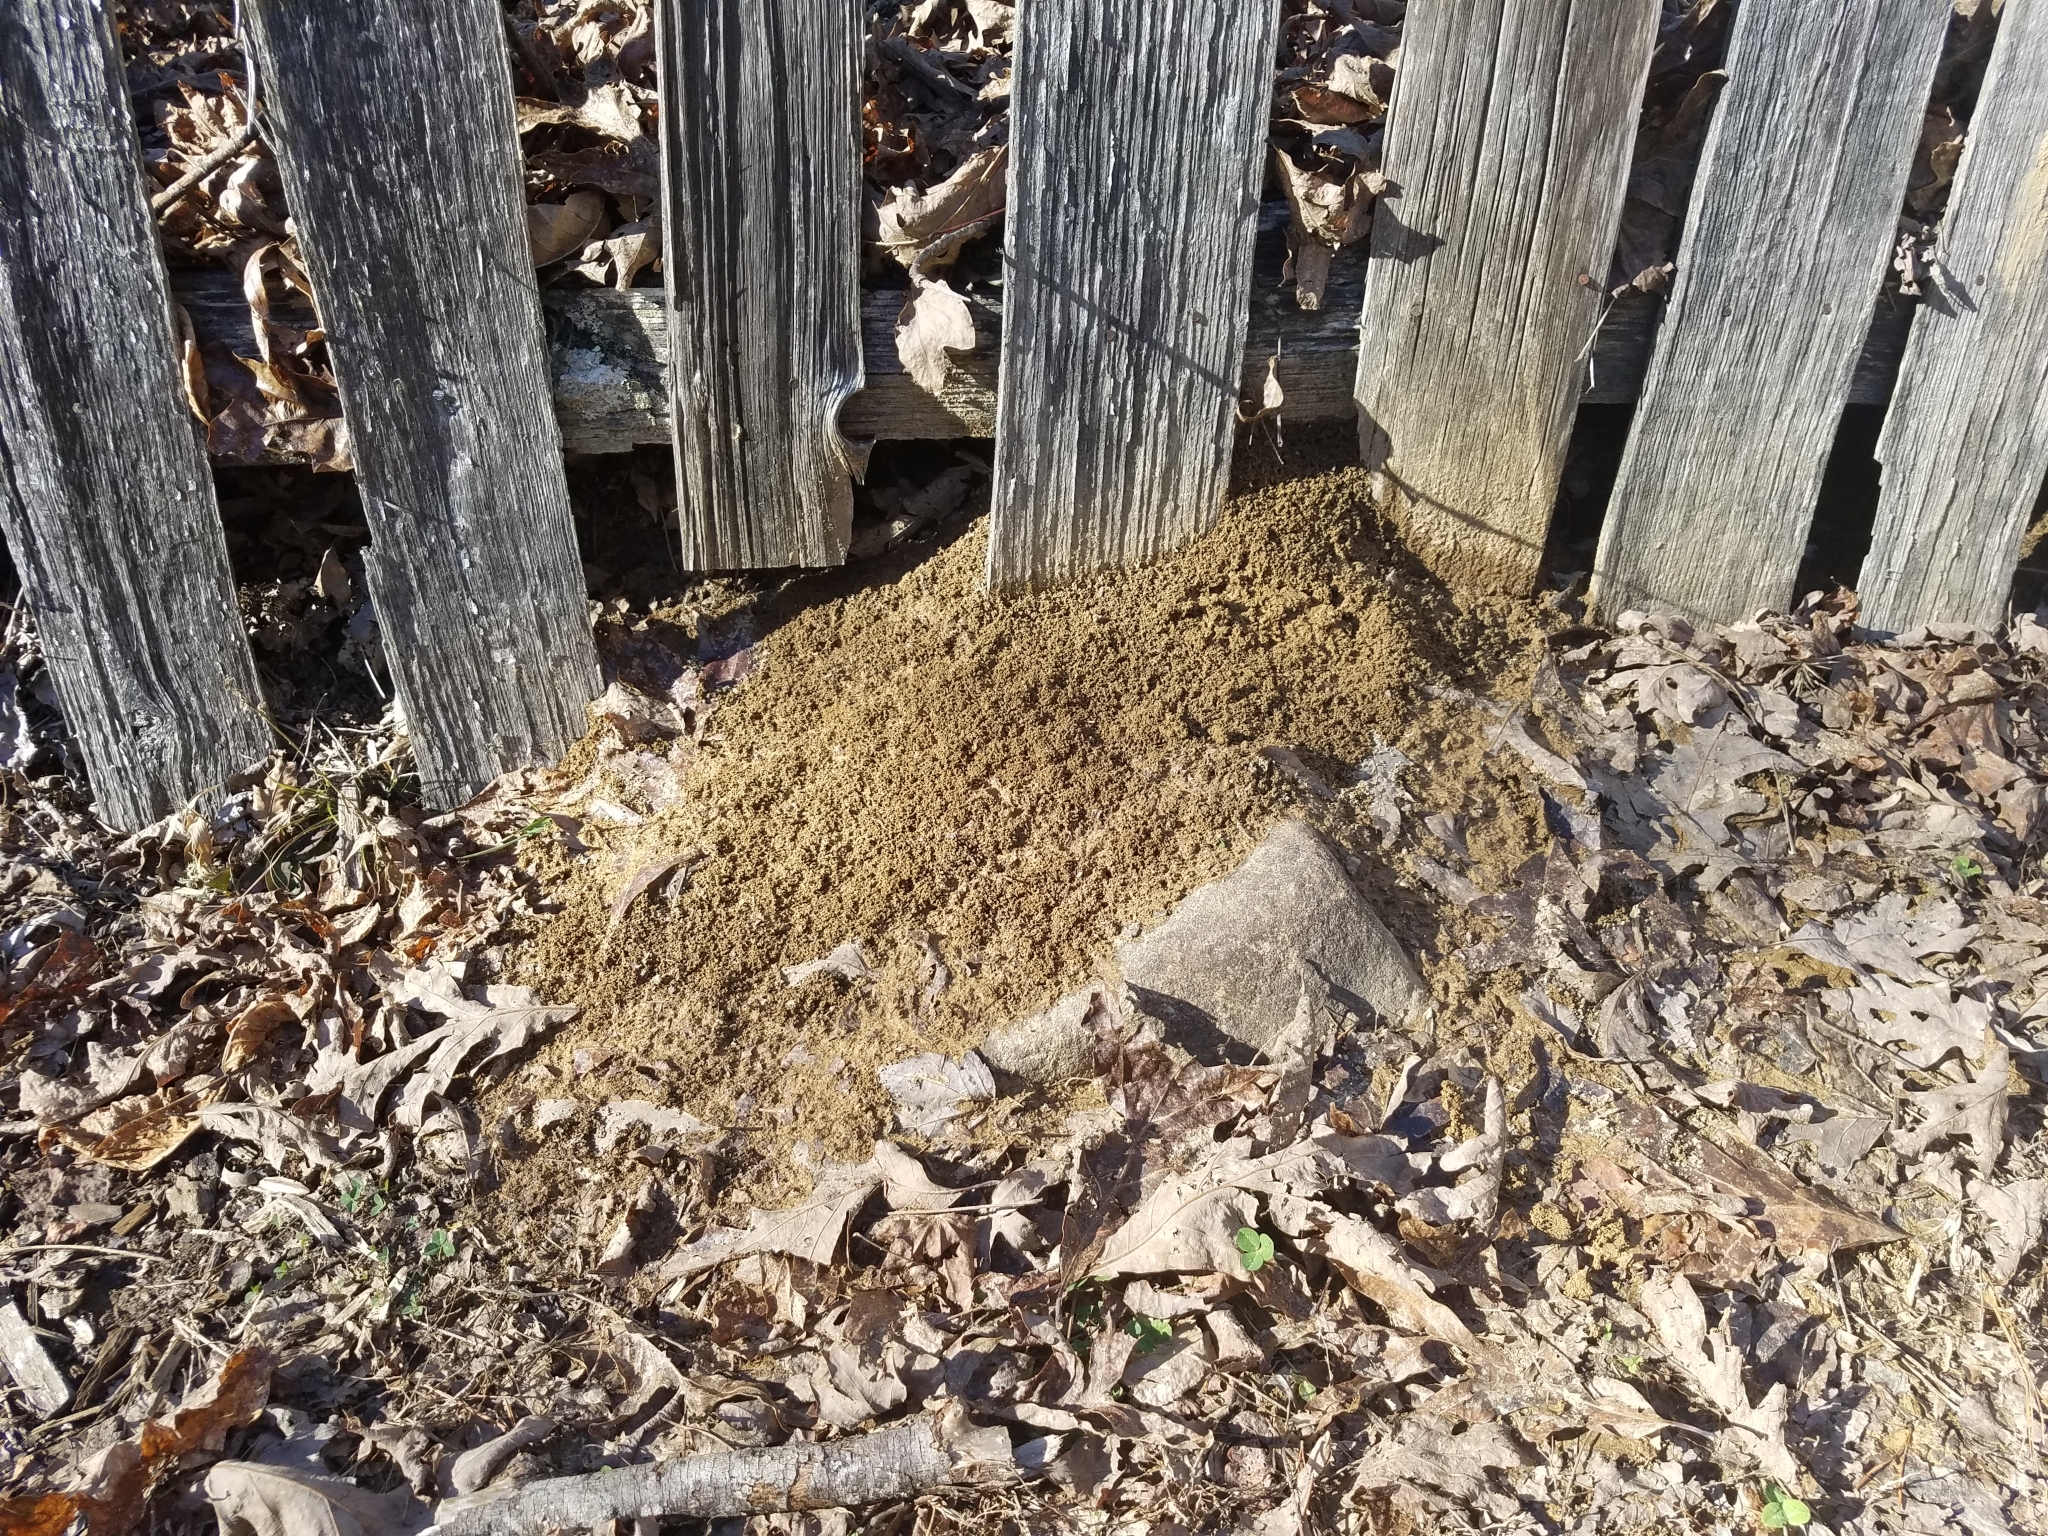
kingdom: Animalia
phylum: Arthropoda
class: Insecta
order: Hymenoptera
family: Formicidae
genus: Solenopsis
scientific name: Solenopsis invicta
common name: Red imported fire ant
